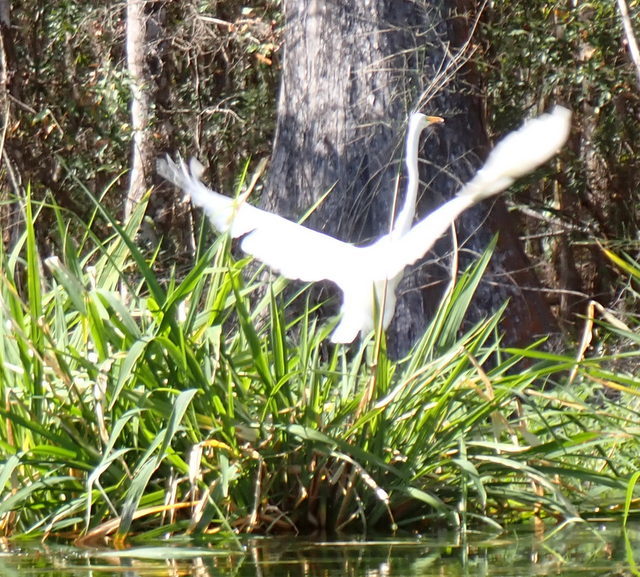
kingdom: Animalia
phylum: Chordata
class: Aves
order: Pelecaniformes
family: Ardeidae
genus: Ardea
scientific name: Ardea alba
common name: Great egret
